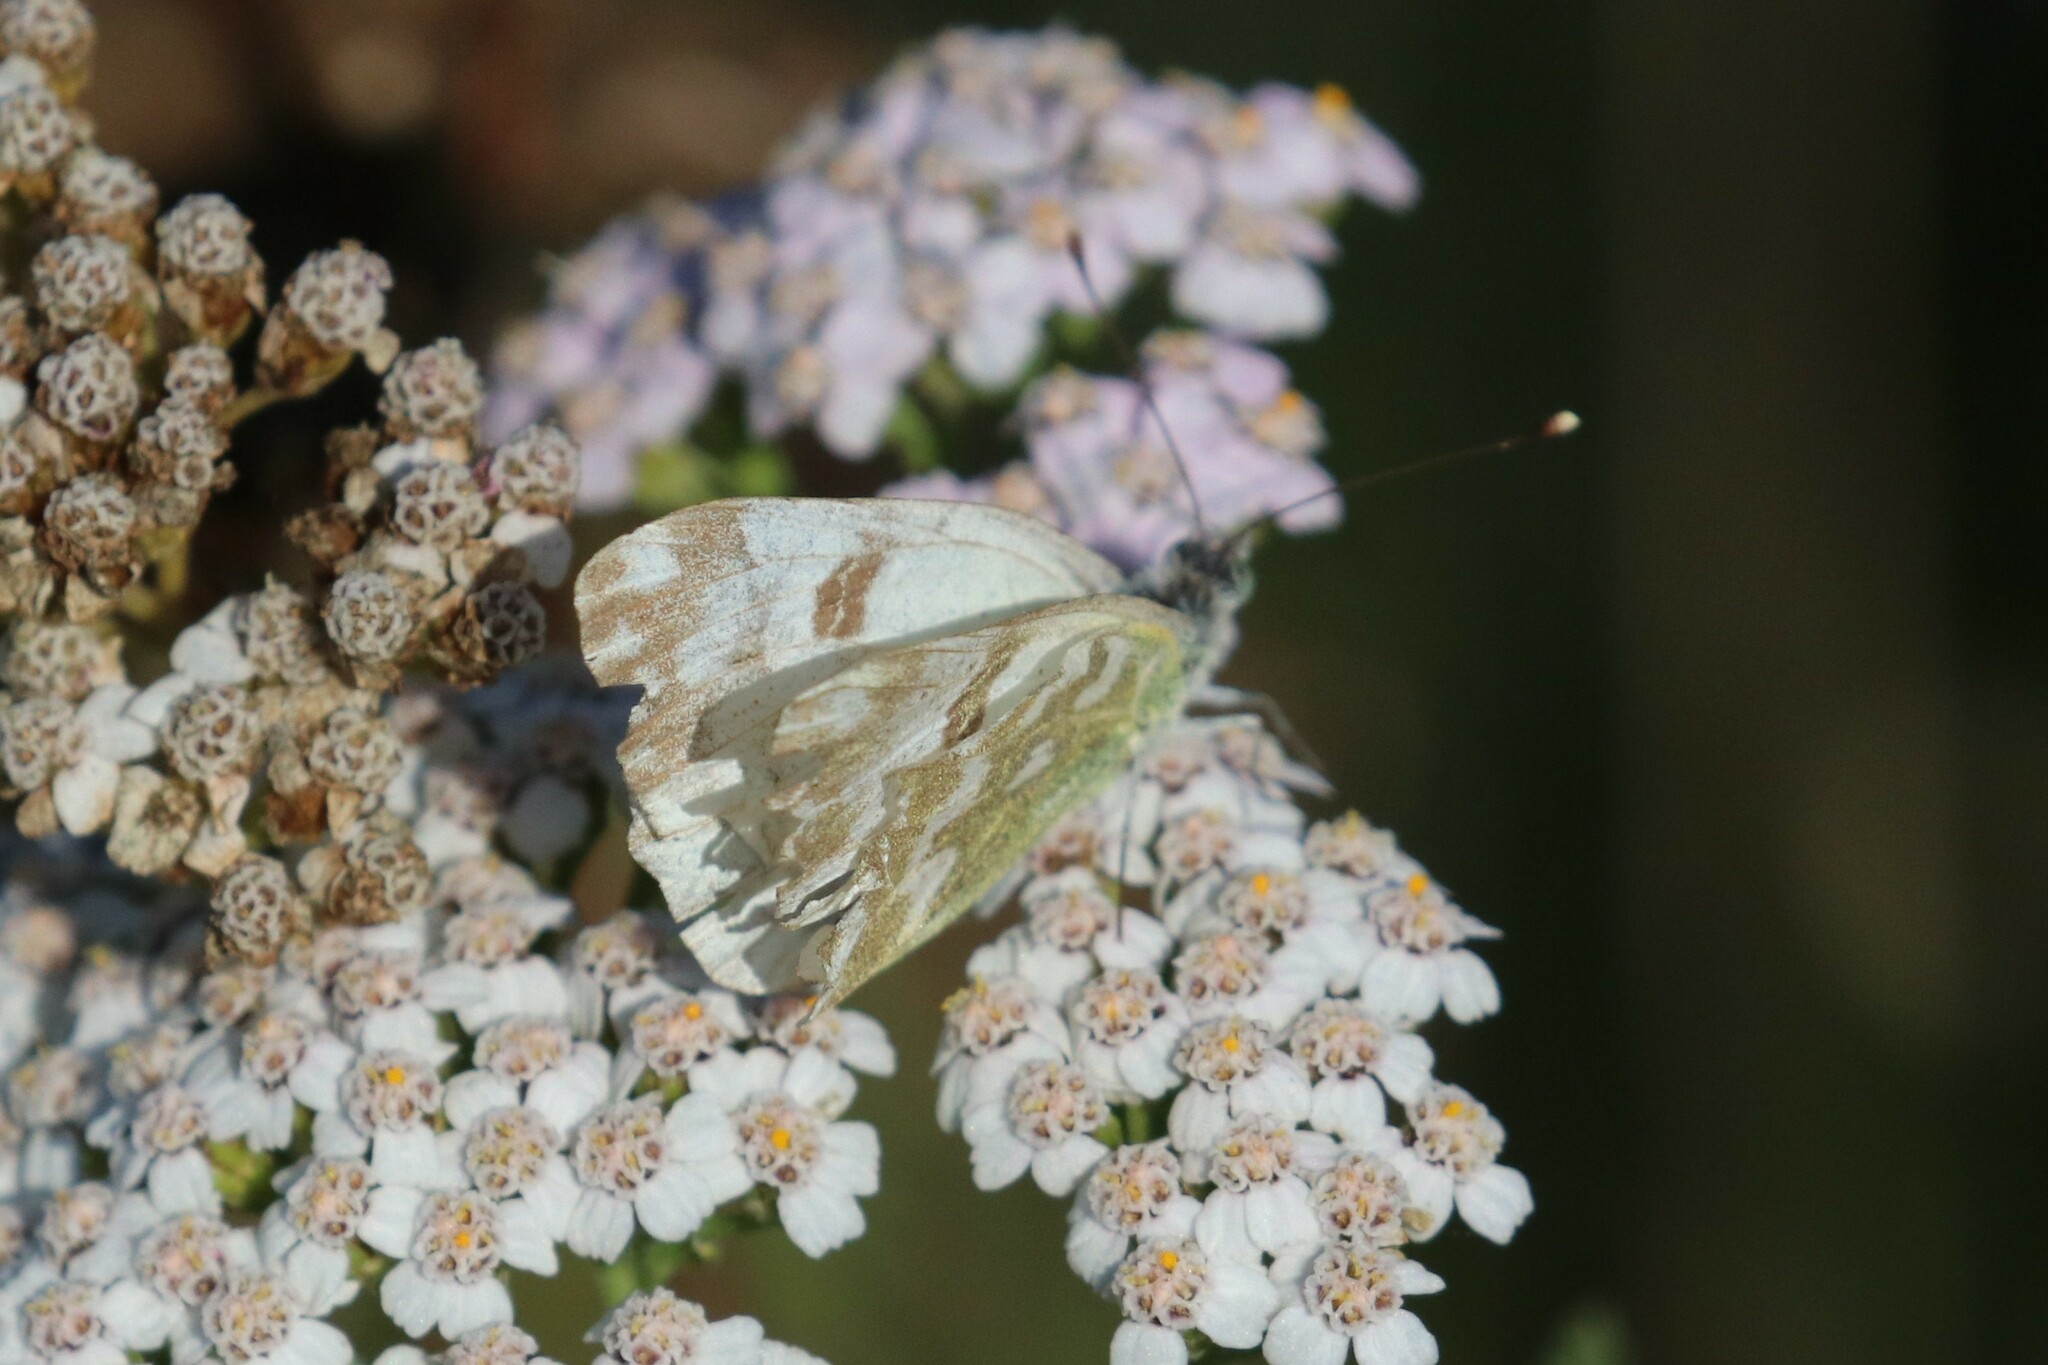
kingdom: Animalia
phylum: Arthropoda
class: Insecta
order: Lepidoptera
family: Pieridae
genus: Pontia
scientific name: Pontia edusa
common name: Eastern bath white
